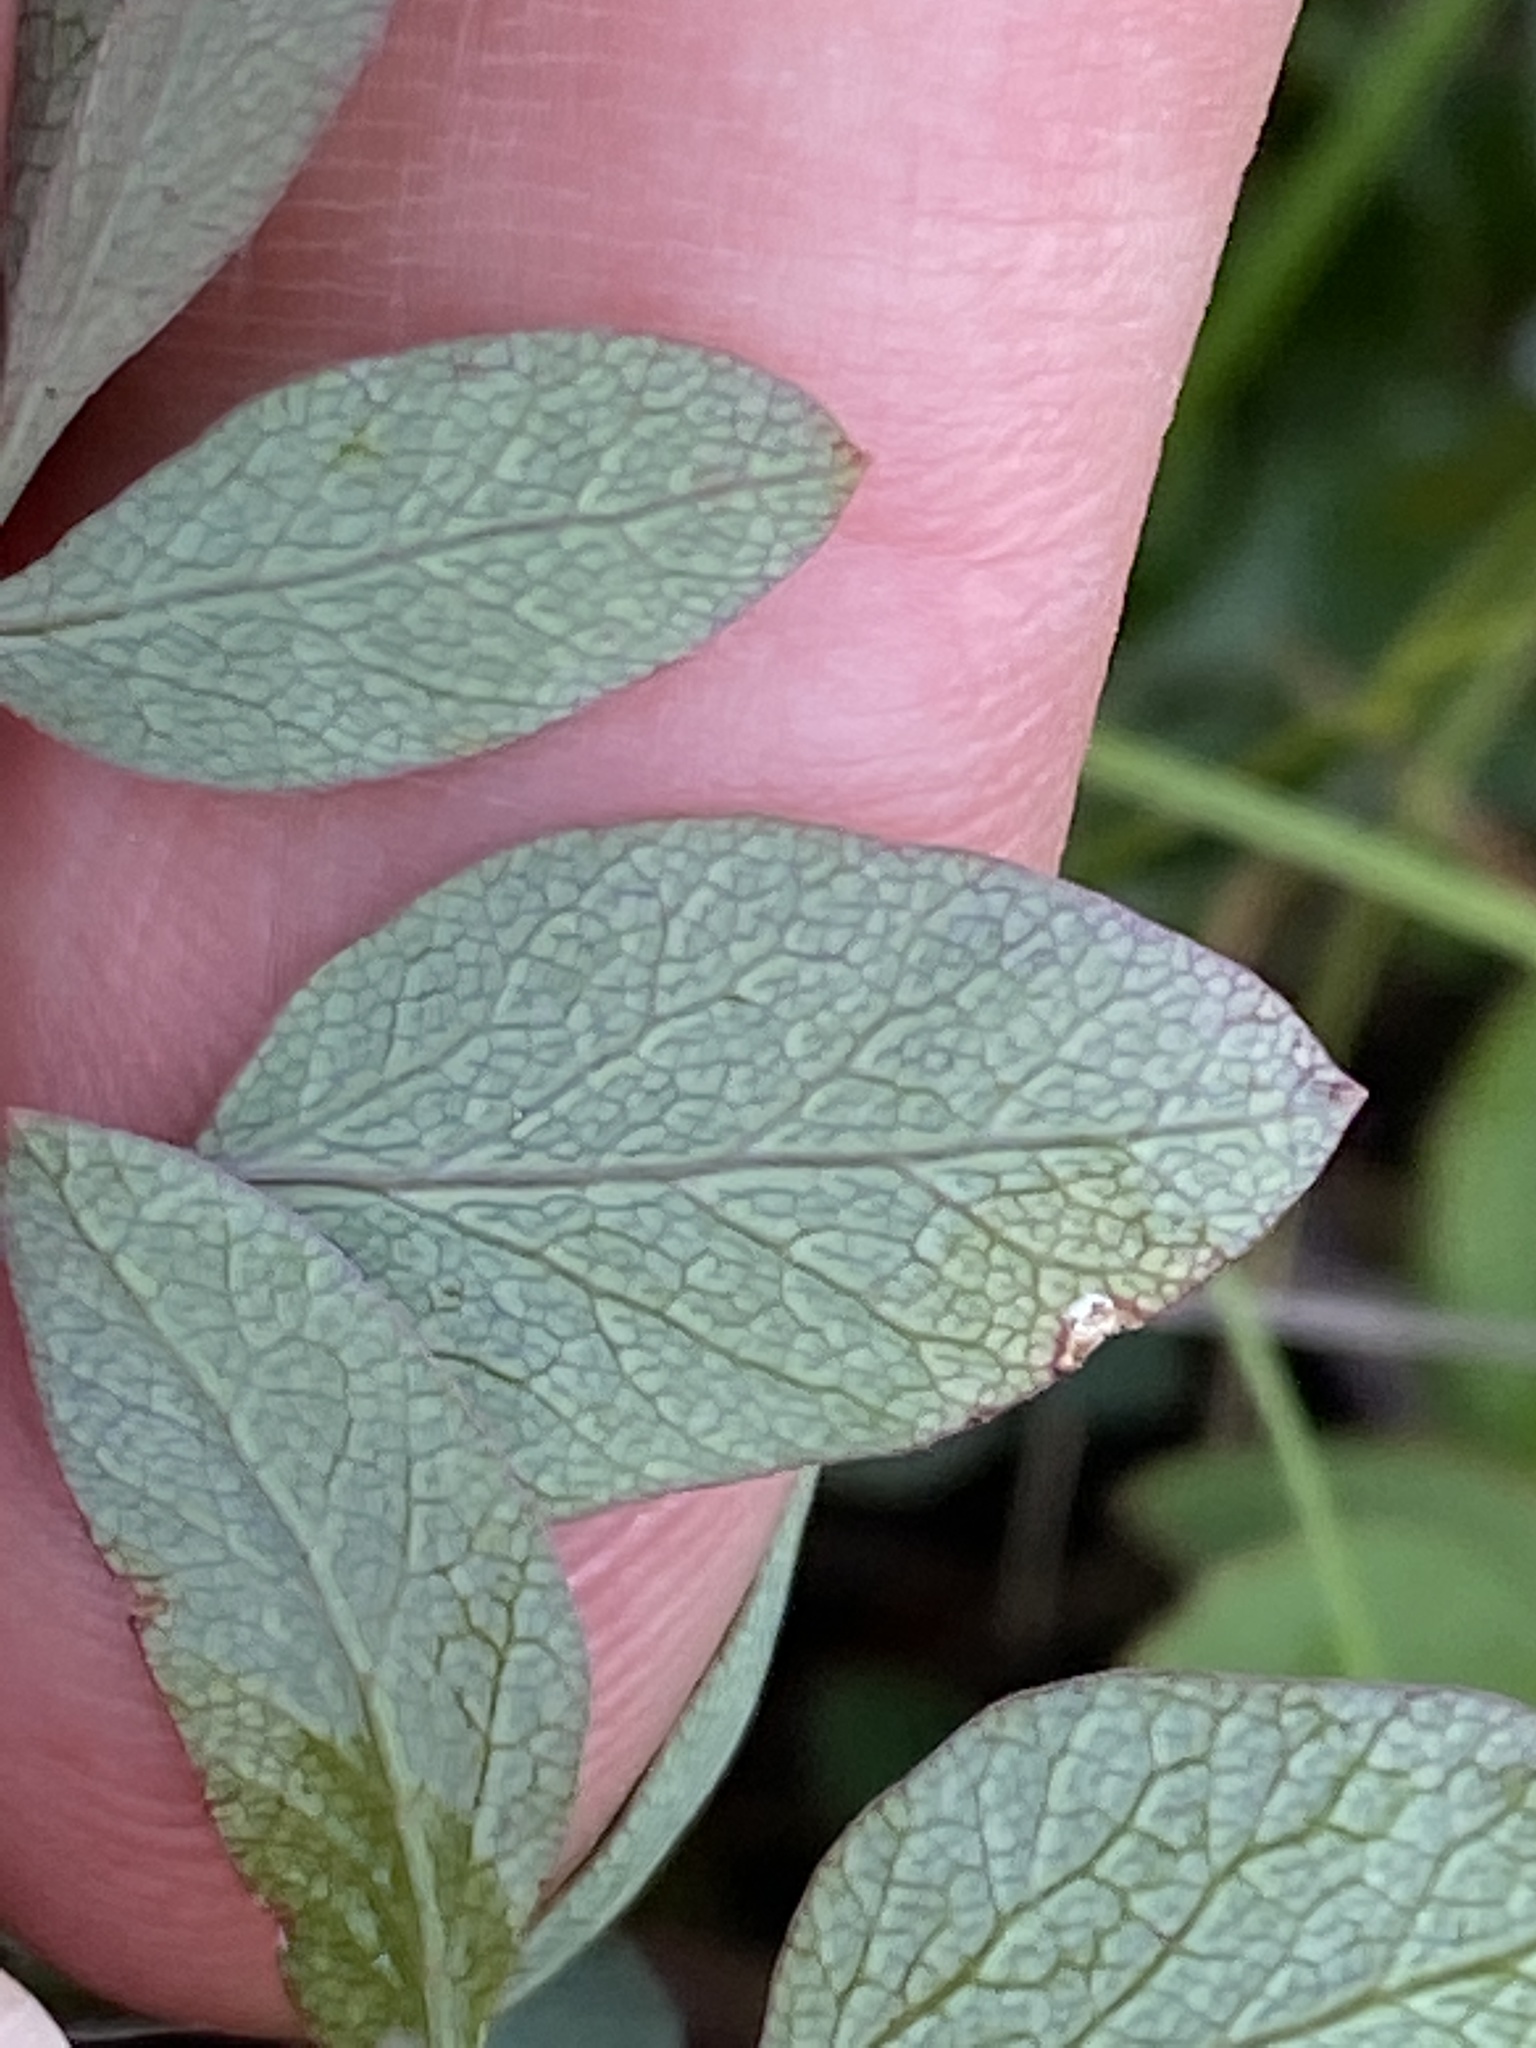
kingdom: Plantae
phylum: Tracheophyta
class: Magnoliopsida
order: Apiales
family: Apiaceae
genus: Taenidia
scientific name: Taenidia integerrima
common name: Golden alexander
